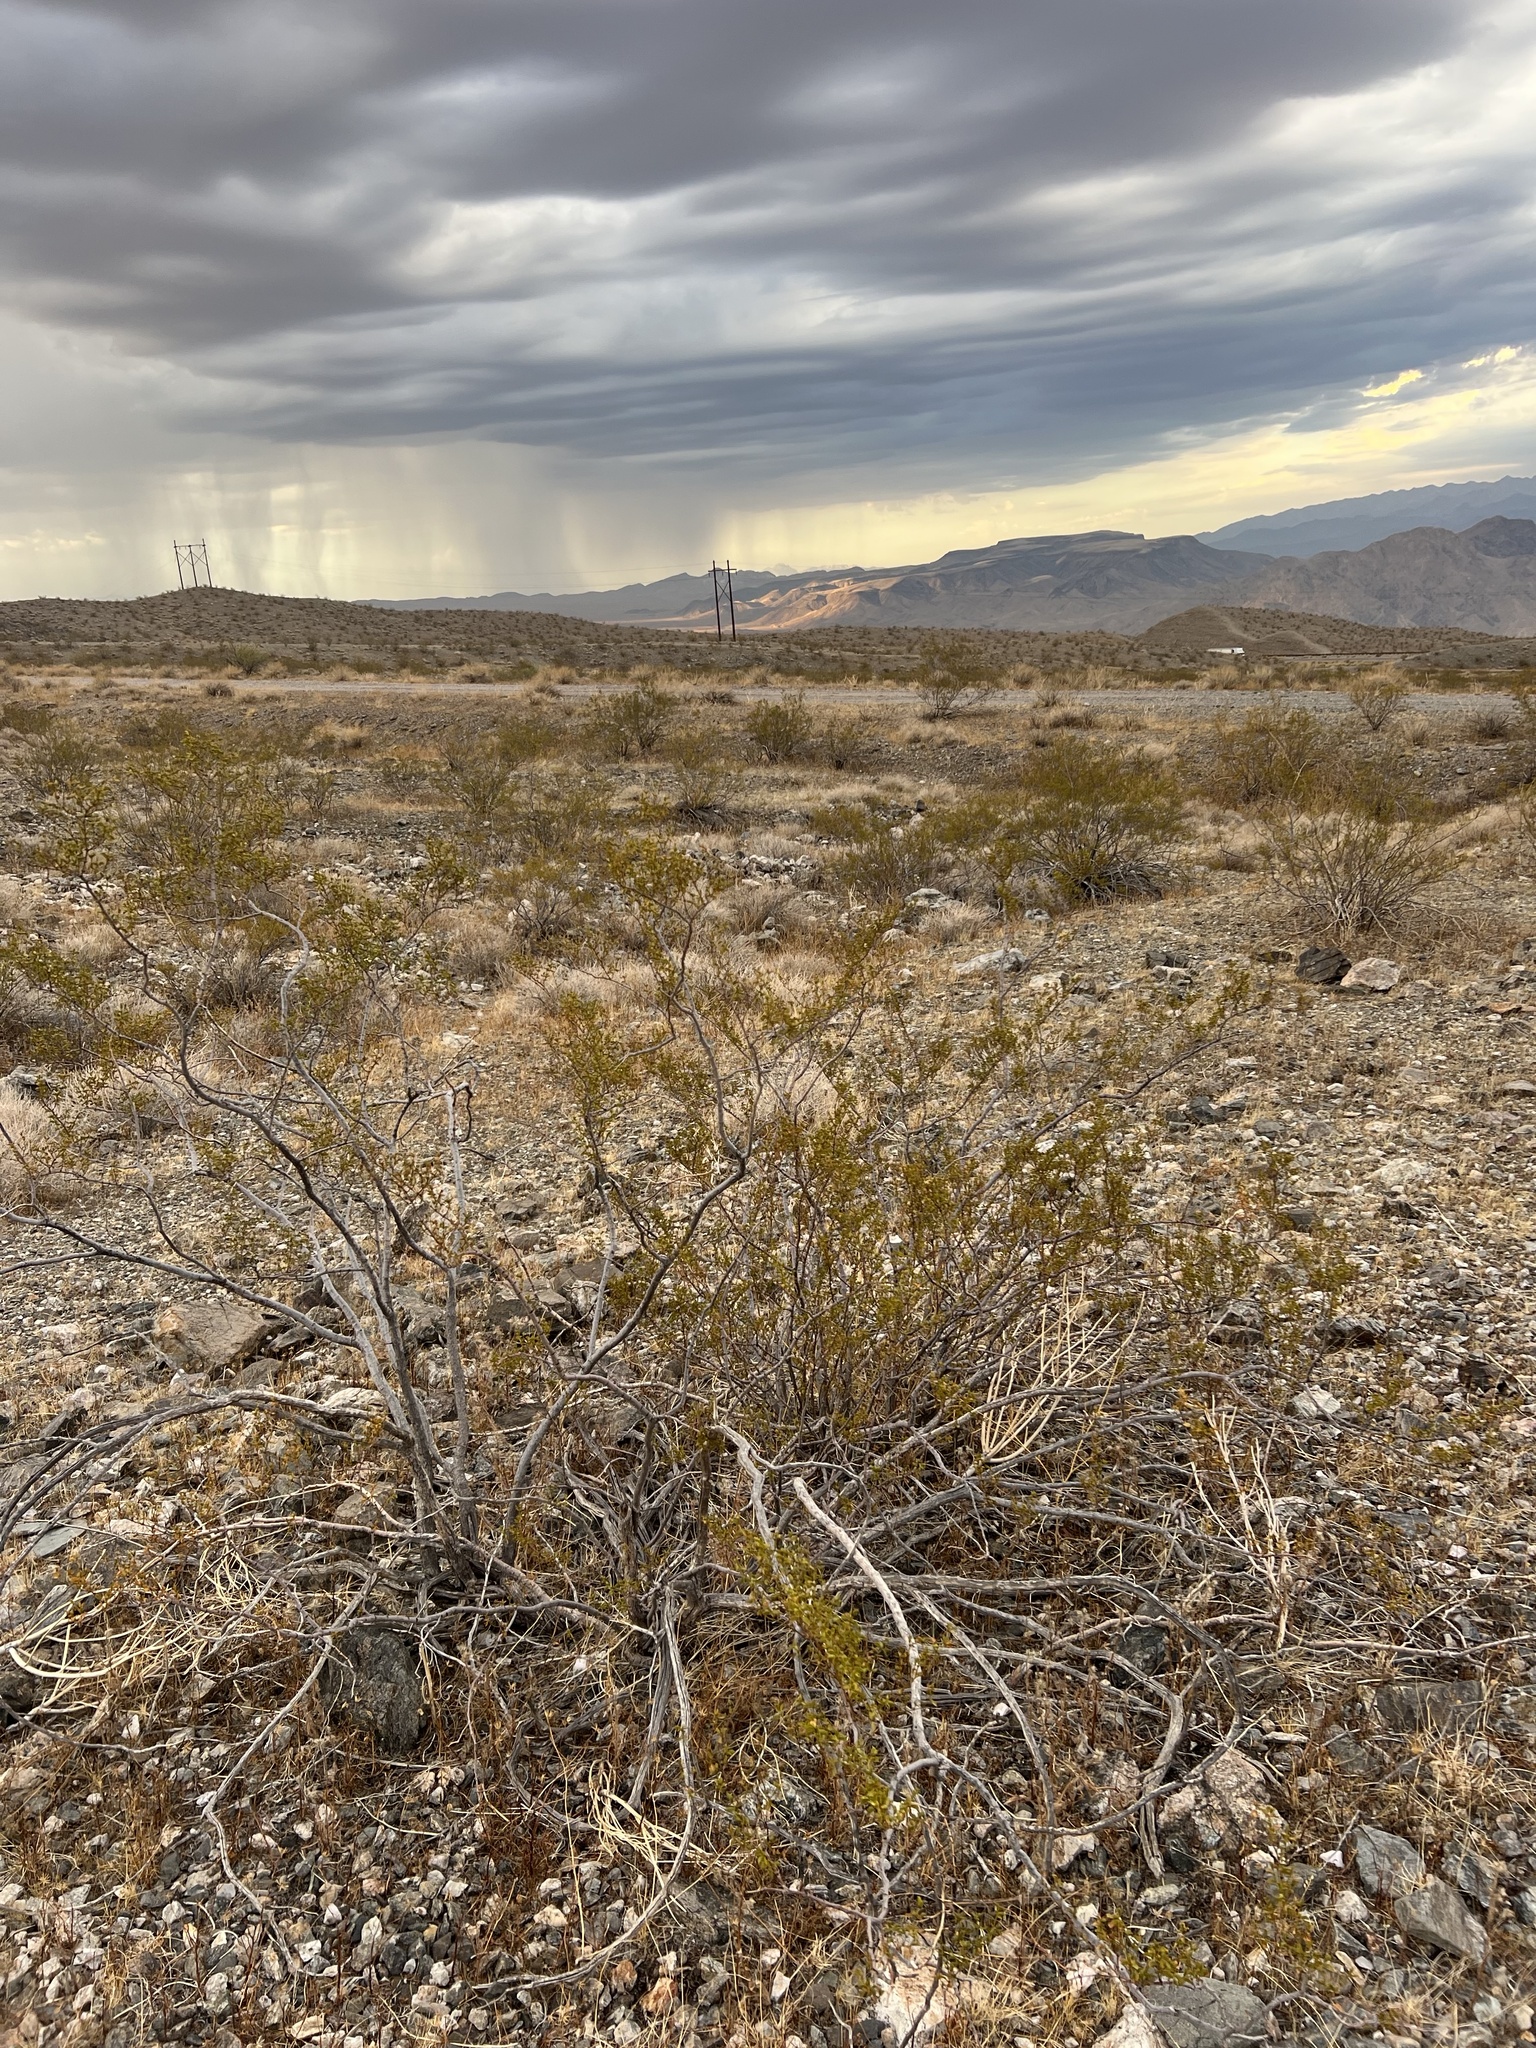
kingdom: Plantae
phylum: Tracheophyta
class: Magnoliopsida
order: Zygophyllales
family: Zygophyllaceae
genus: Larrea
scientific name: Larrea tridentata
